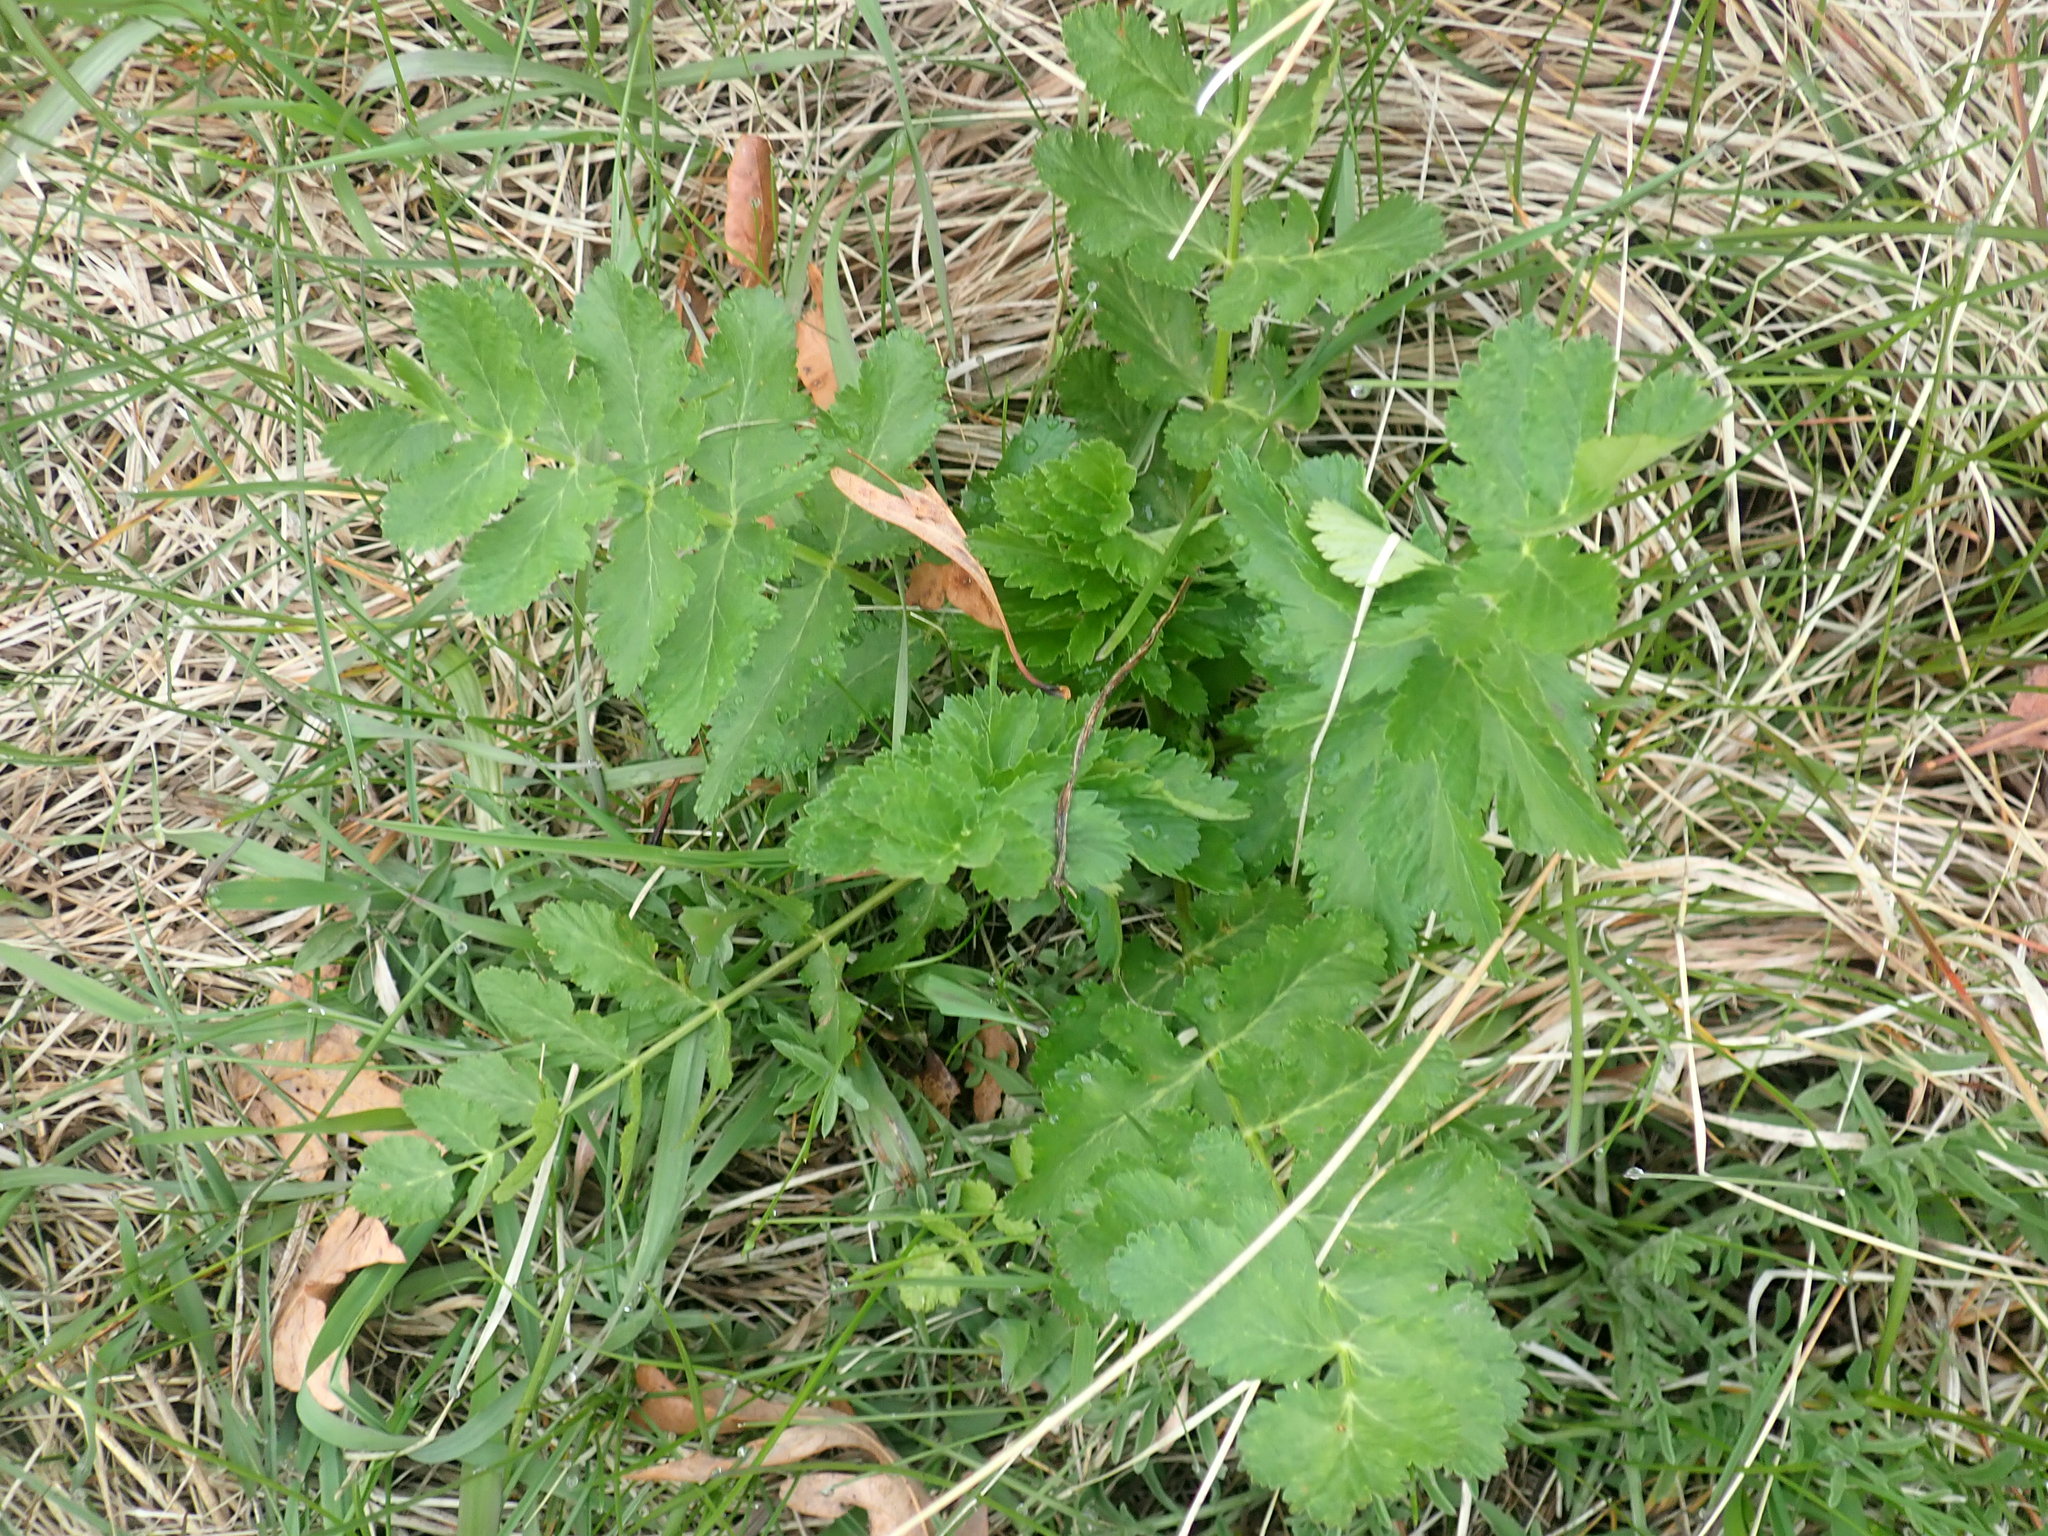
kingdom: Plantae
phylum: Tracheophyta
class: Magnoliopsida
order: Apiales
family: Apiaceae
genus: Pastinaca
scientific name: Pastinaca sativa
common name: Wild parsnip
